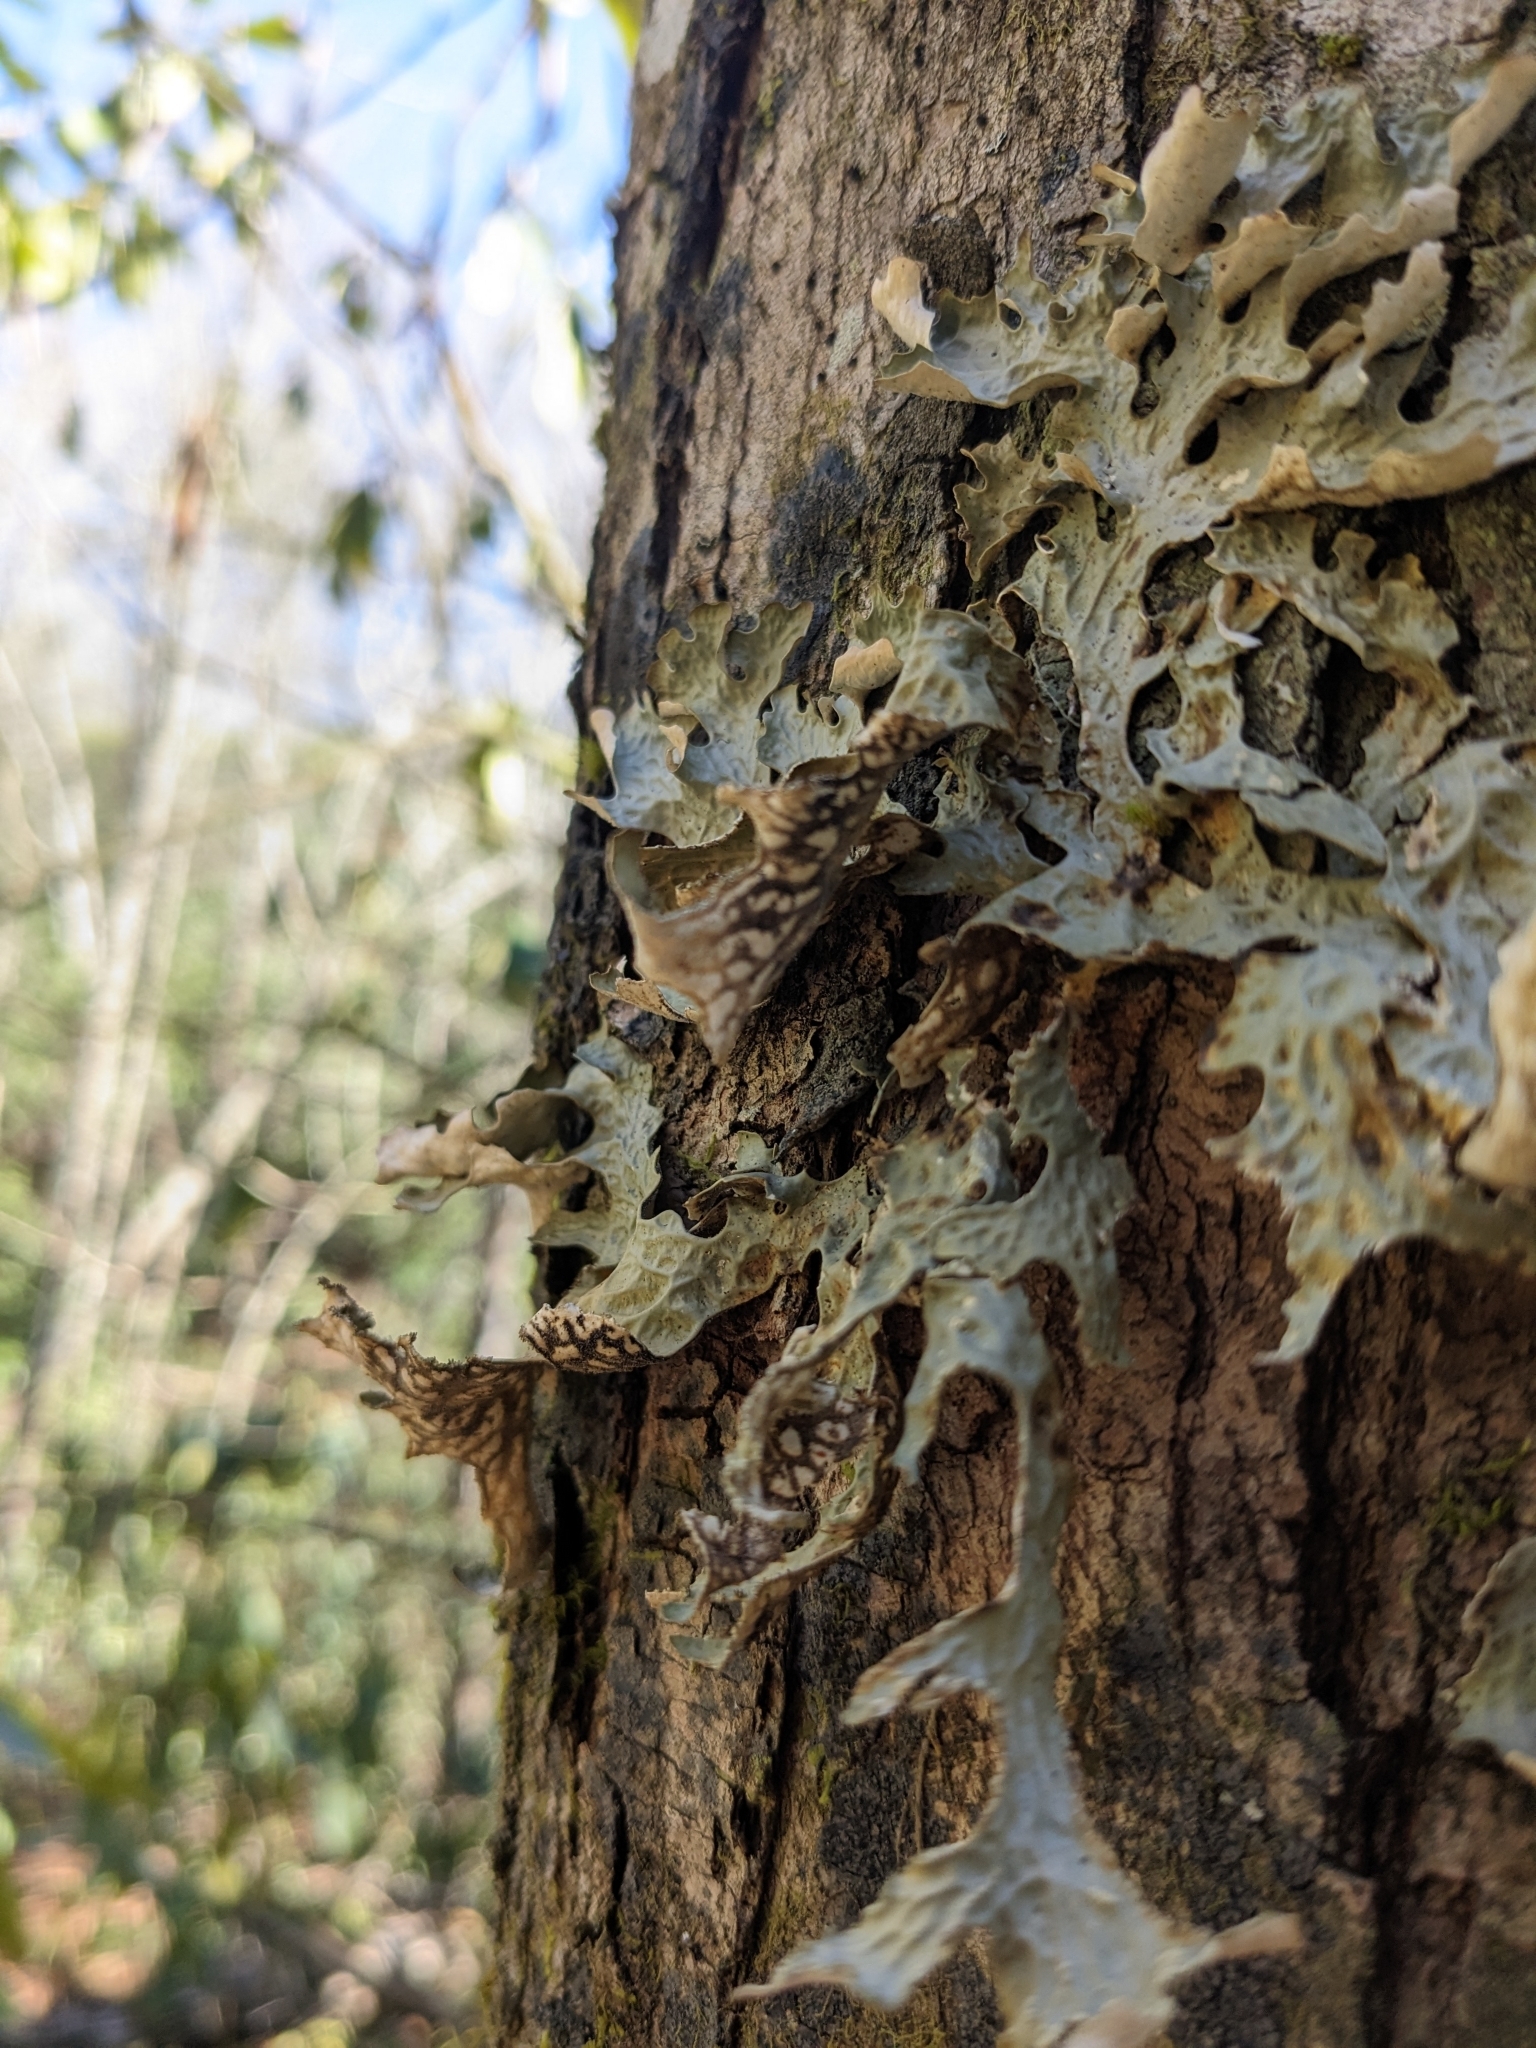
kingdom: Fungi
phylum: Ascomycota
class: Lecanoromycetes
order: Peltigerales
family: Lobariaceae
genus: Lobaria
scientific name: Lobaria pulmonaria
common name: Lungwort
